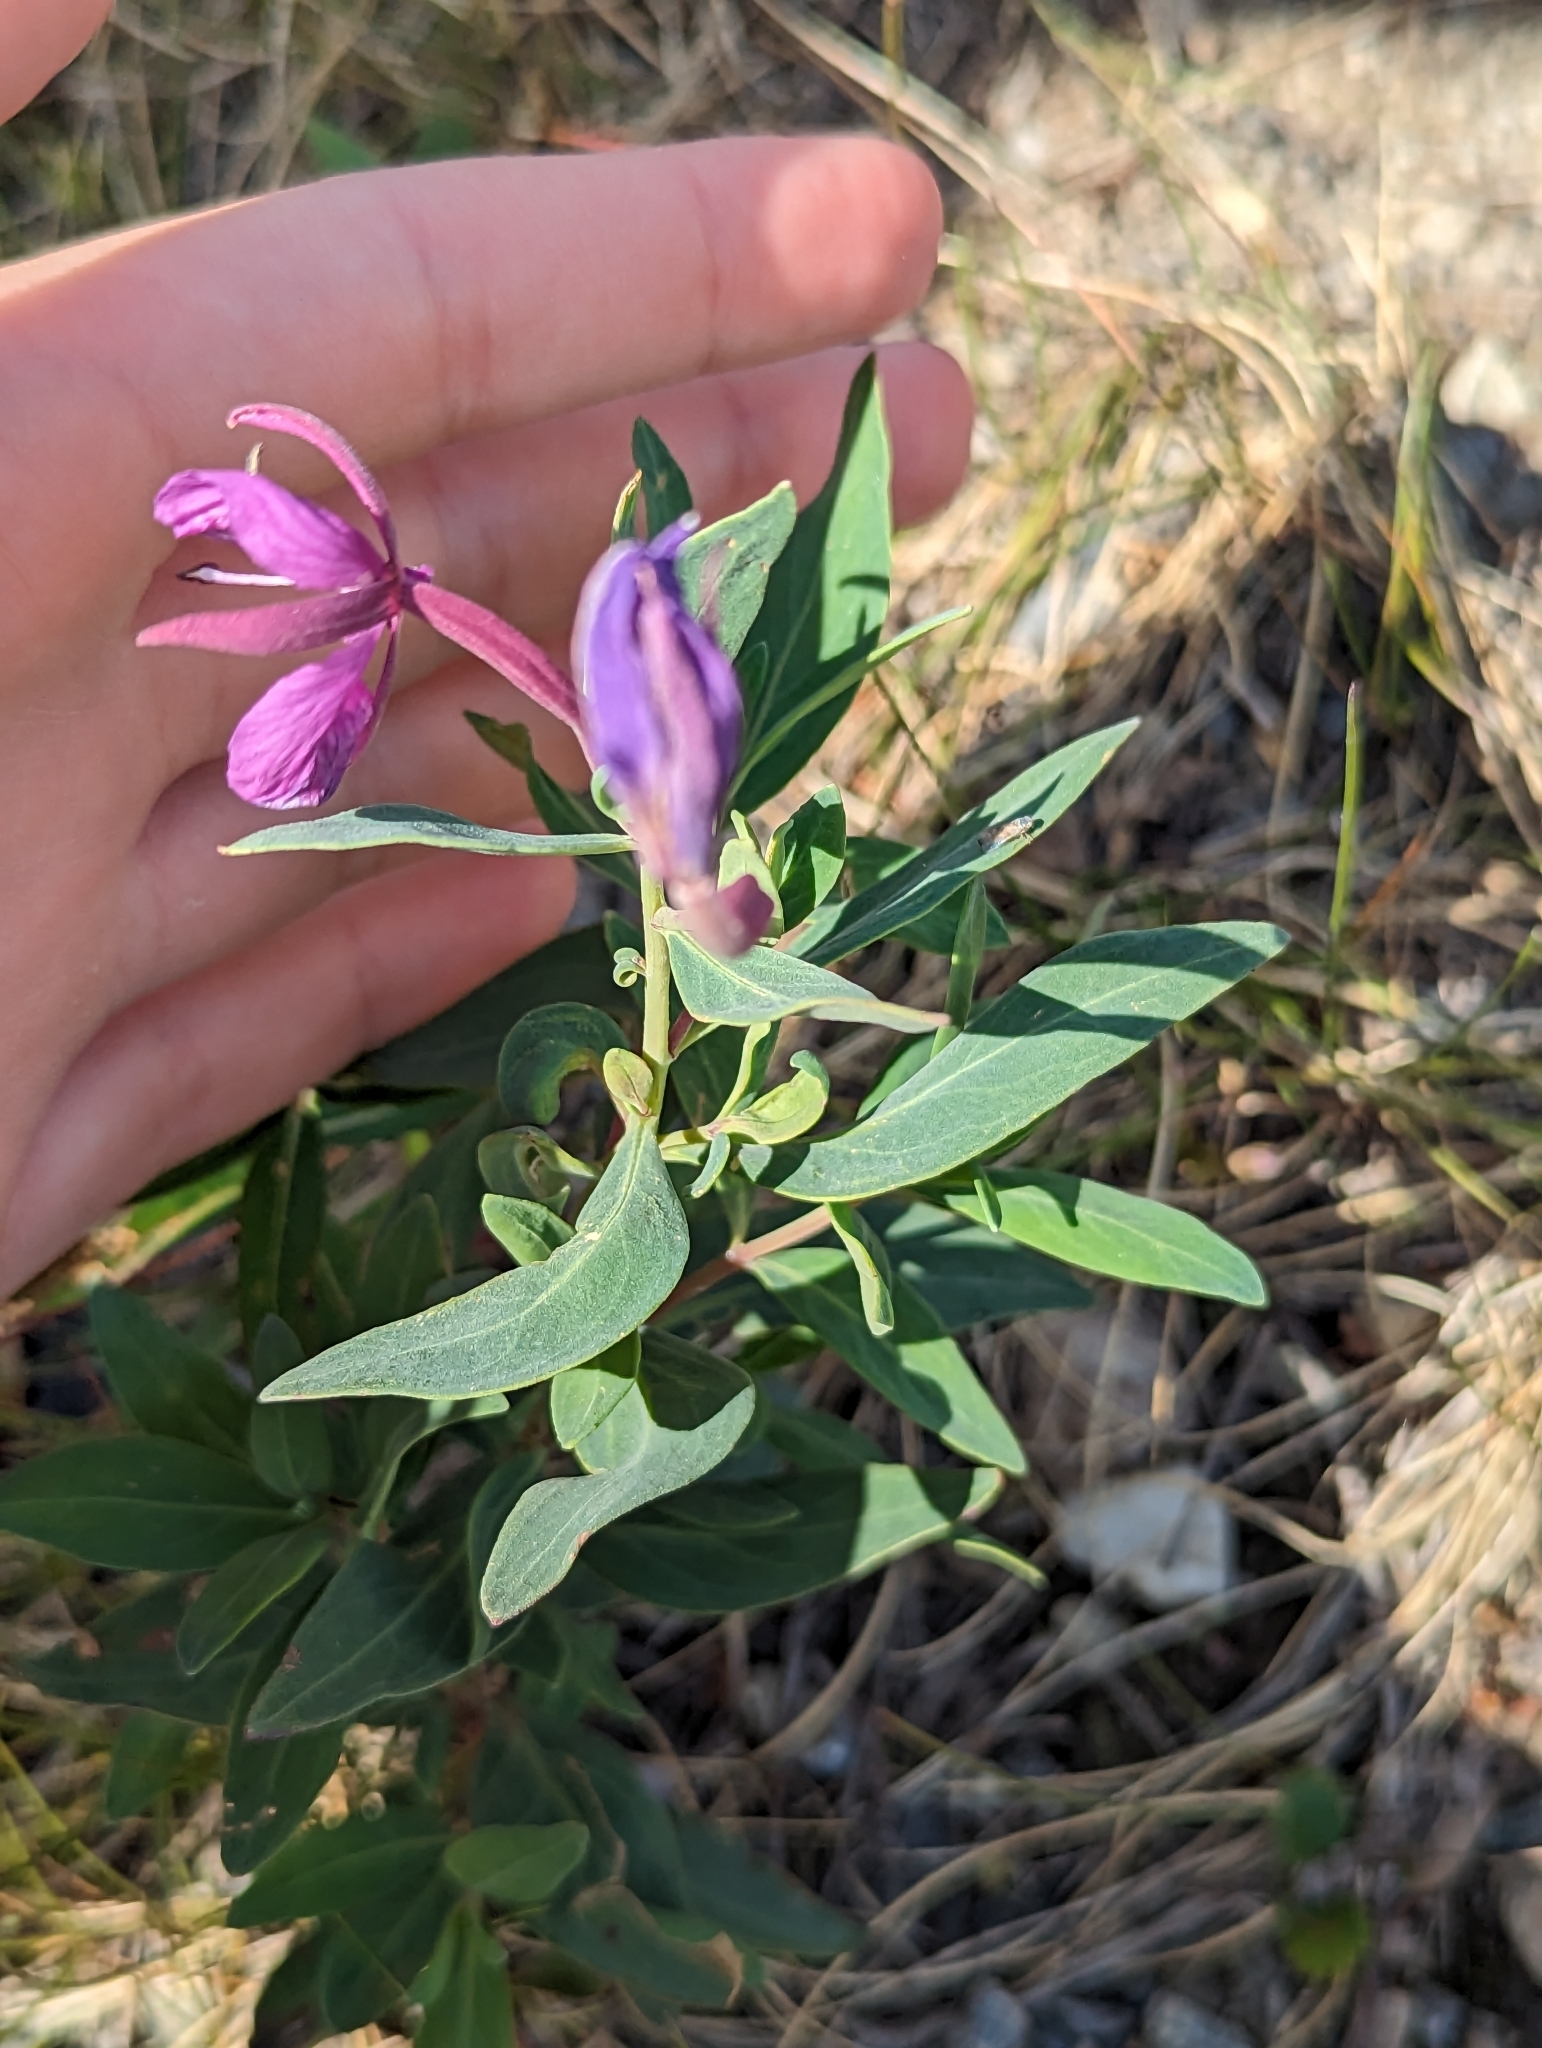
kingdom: Plantae
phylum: Tracheophyta
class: Magnoliopsida
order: Myrtales
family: Onagraceae
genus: Chamaenerion
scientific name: Chamaenerion latifolium
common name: Dwarf fireweed
